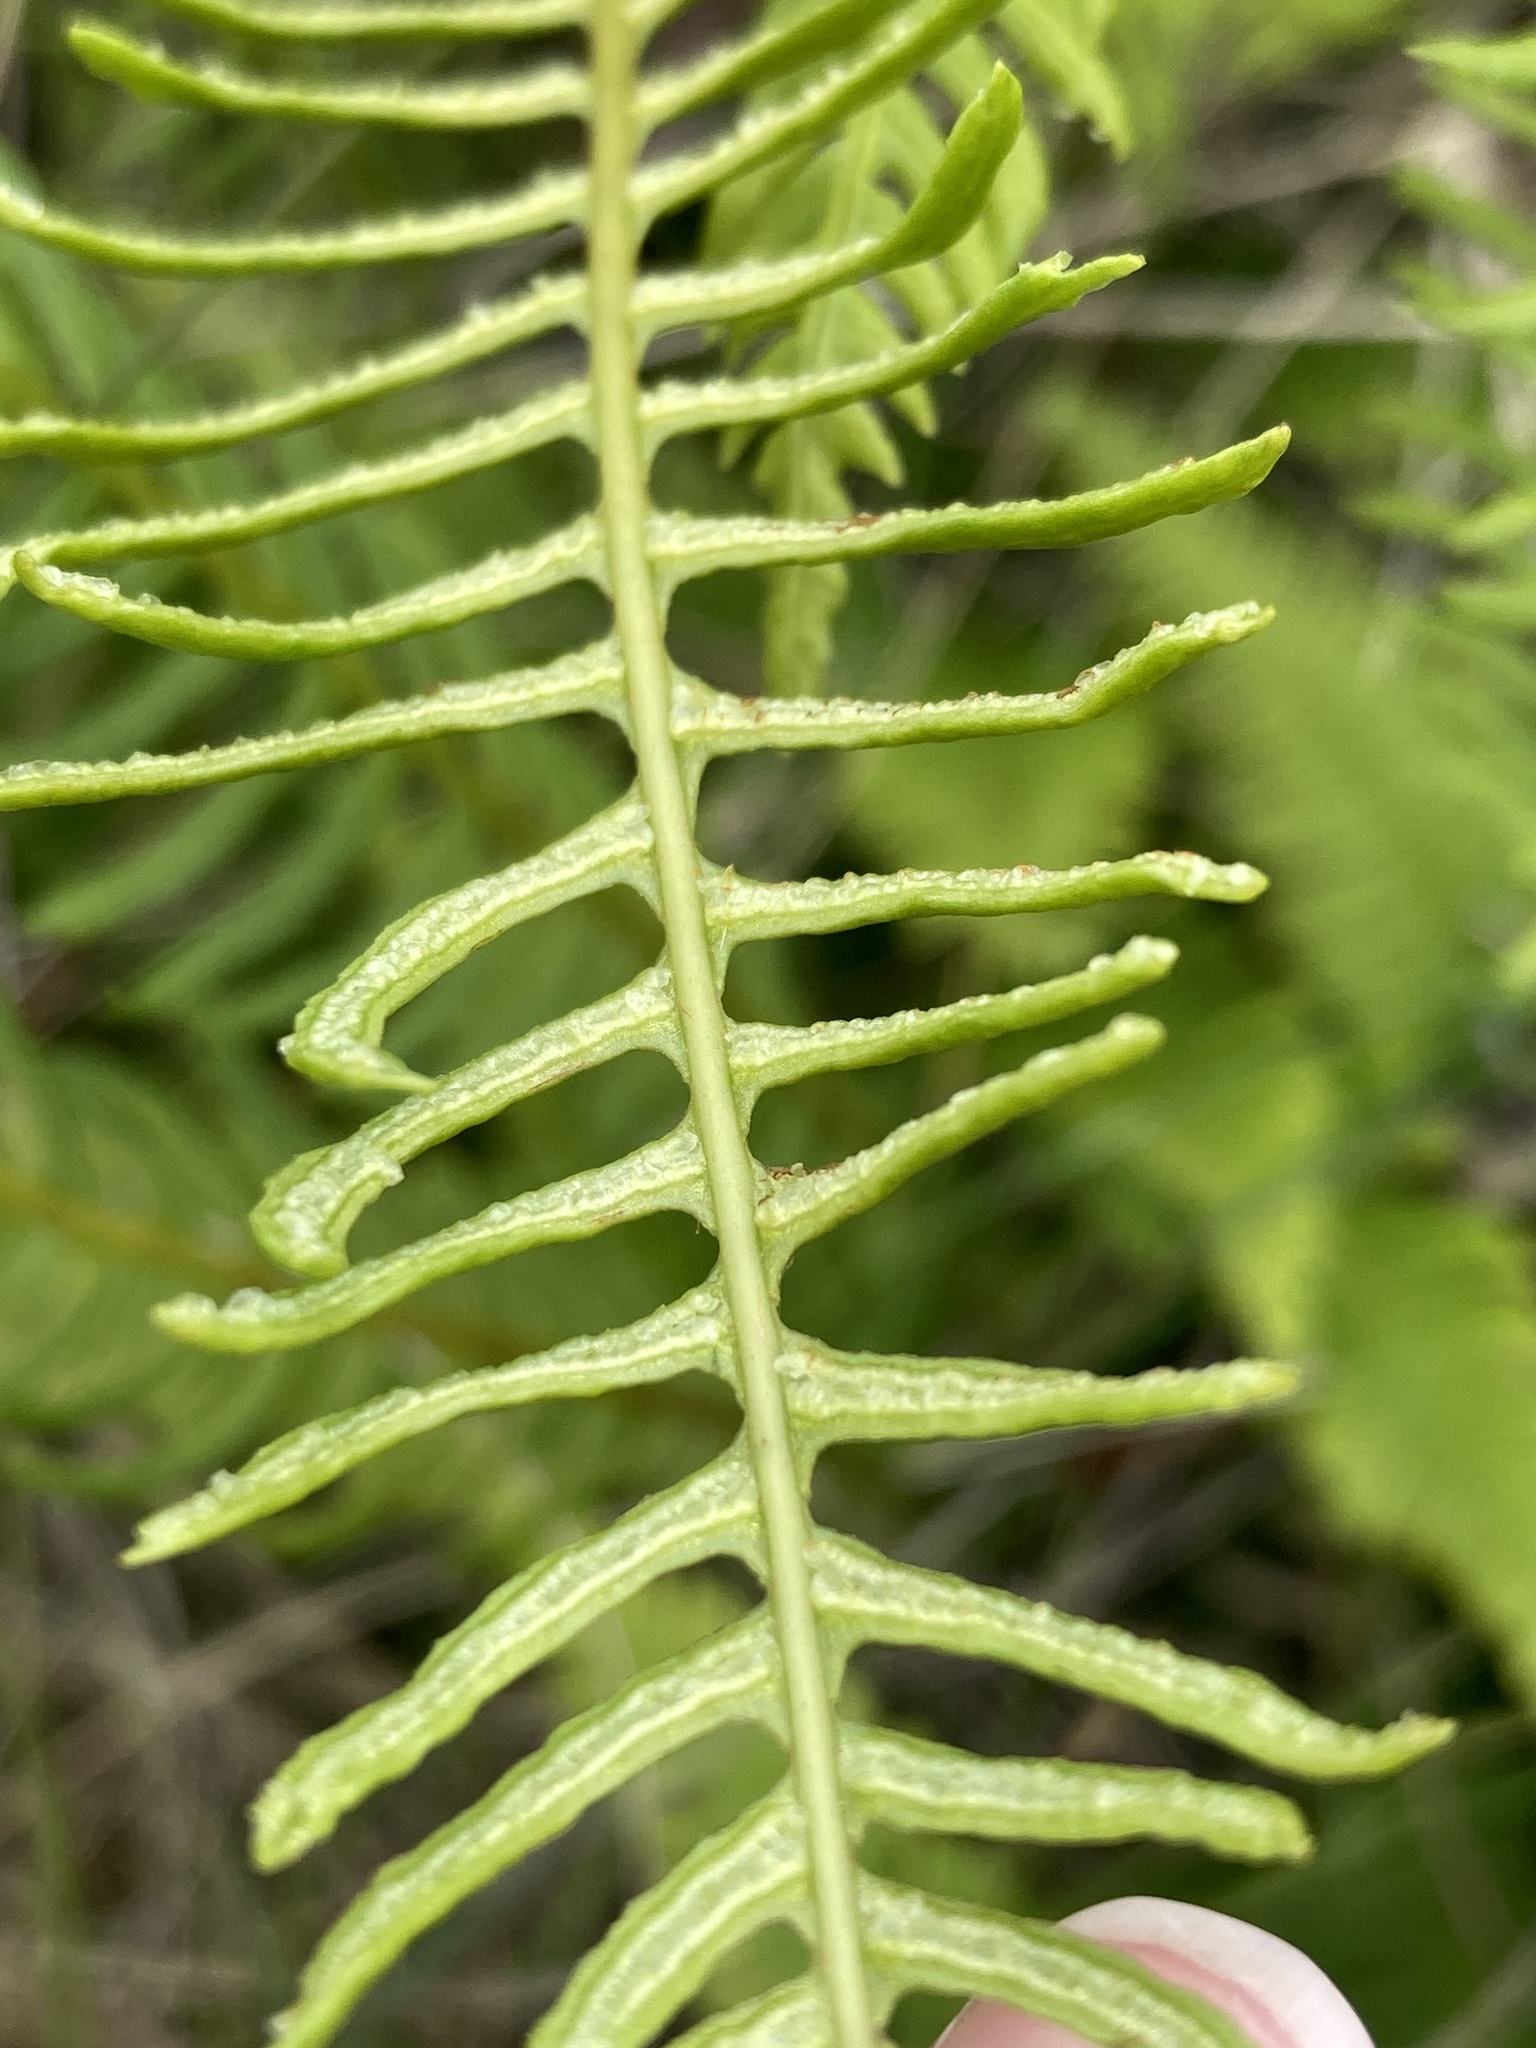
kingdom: Plantae
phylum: Tracheophyta
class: Polypodiopsida
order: Polypodiales
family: Blechnaceae
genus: Struthiopteris
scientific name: Struthiopteris spicant
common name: Deer fern
